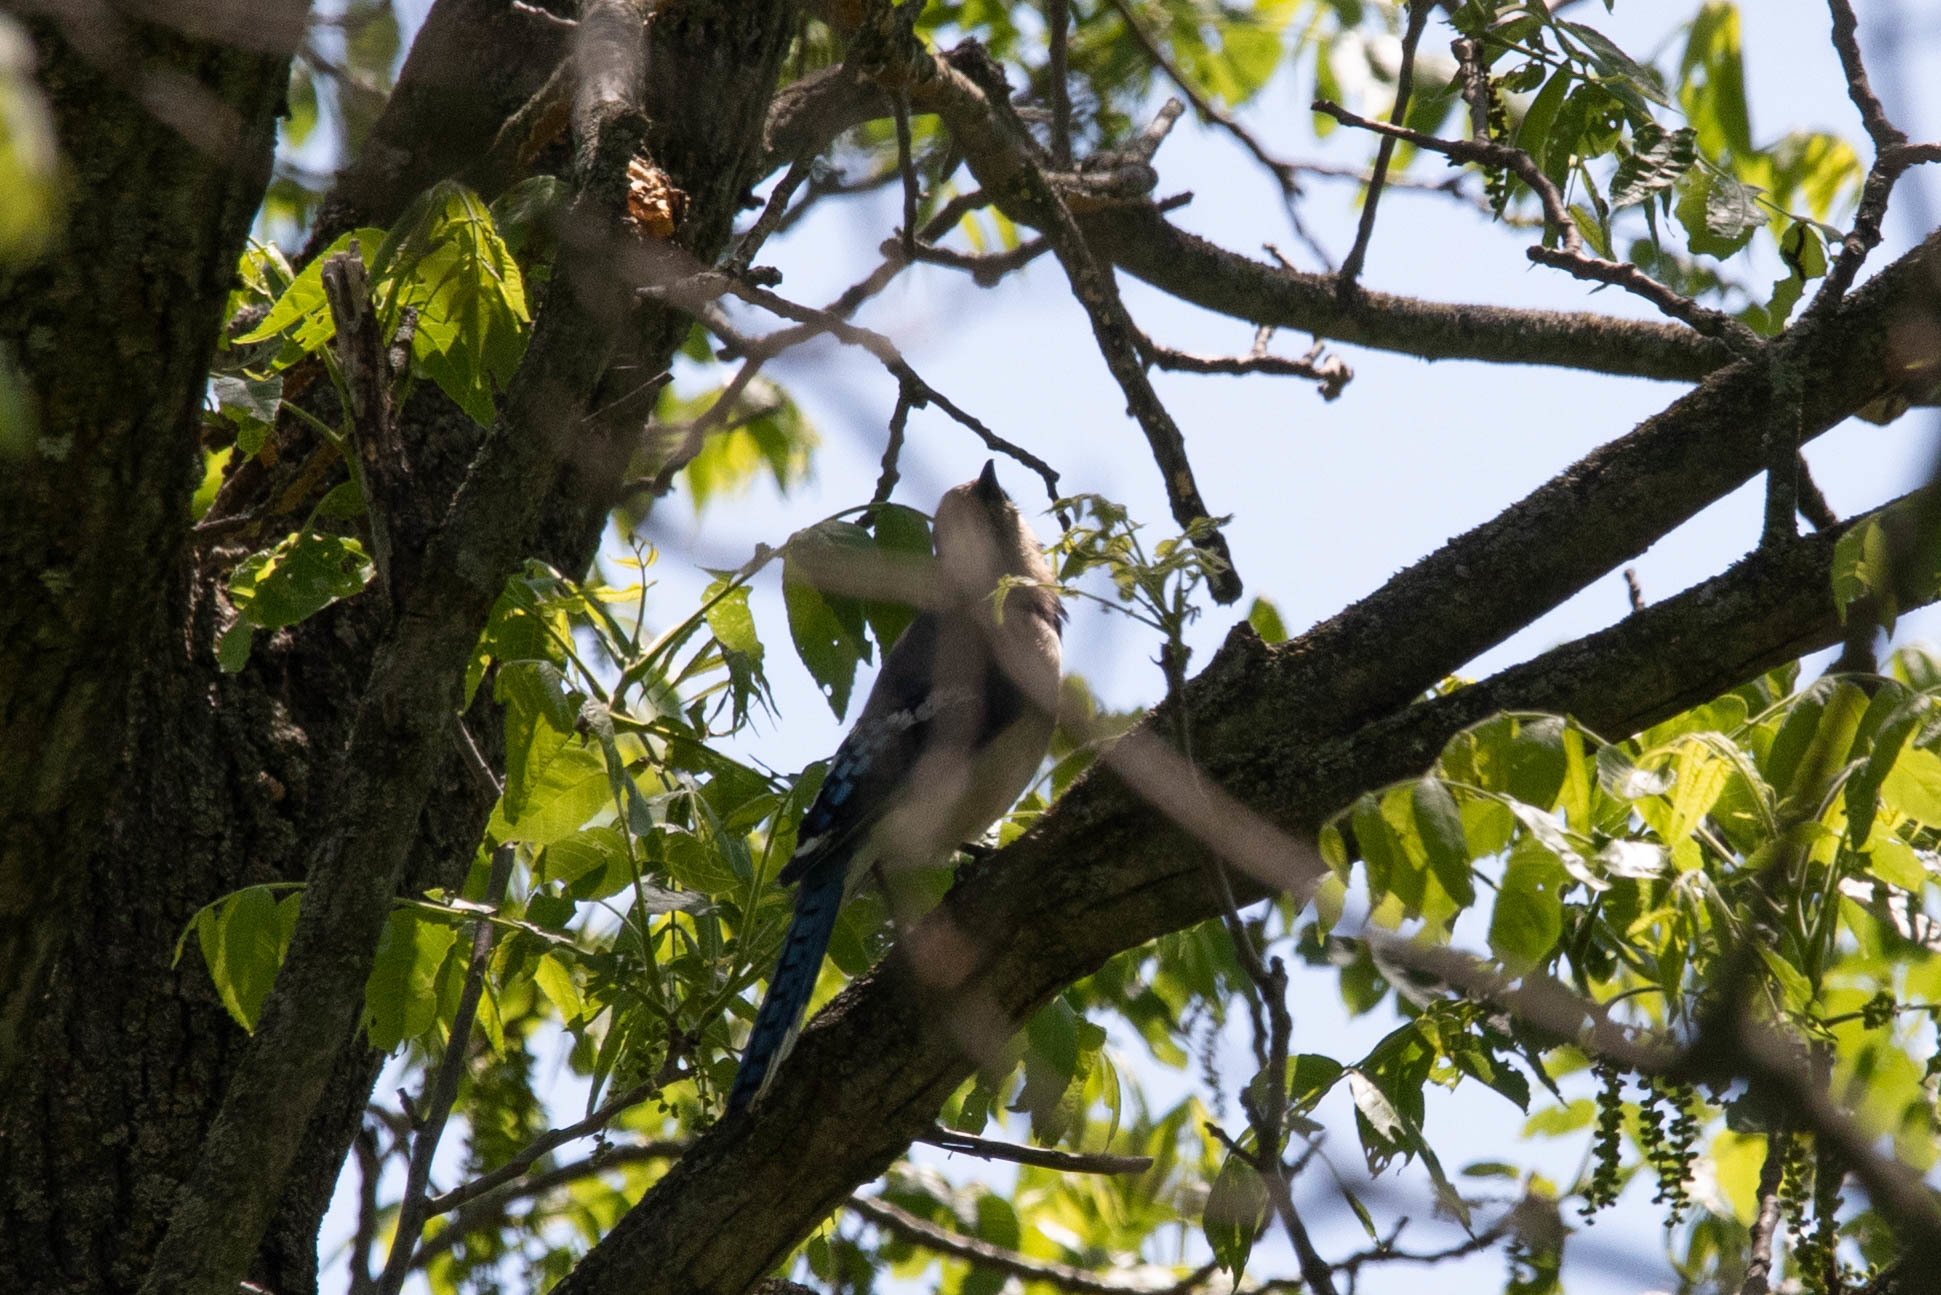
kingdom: Animalia
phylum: Chordata
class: Aves
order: Passeriformes
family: Corvidae
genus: Cyanocitta
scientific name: Cyanocitta cristata
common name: Blue jay
